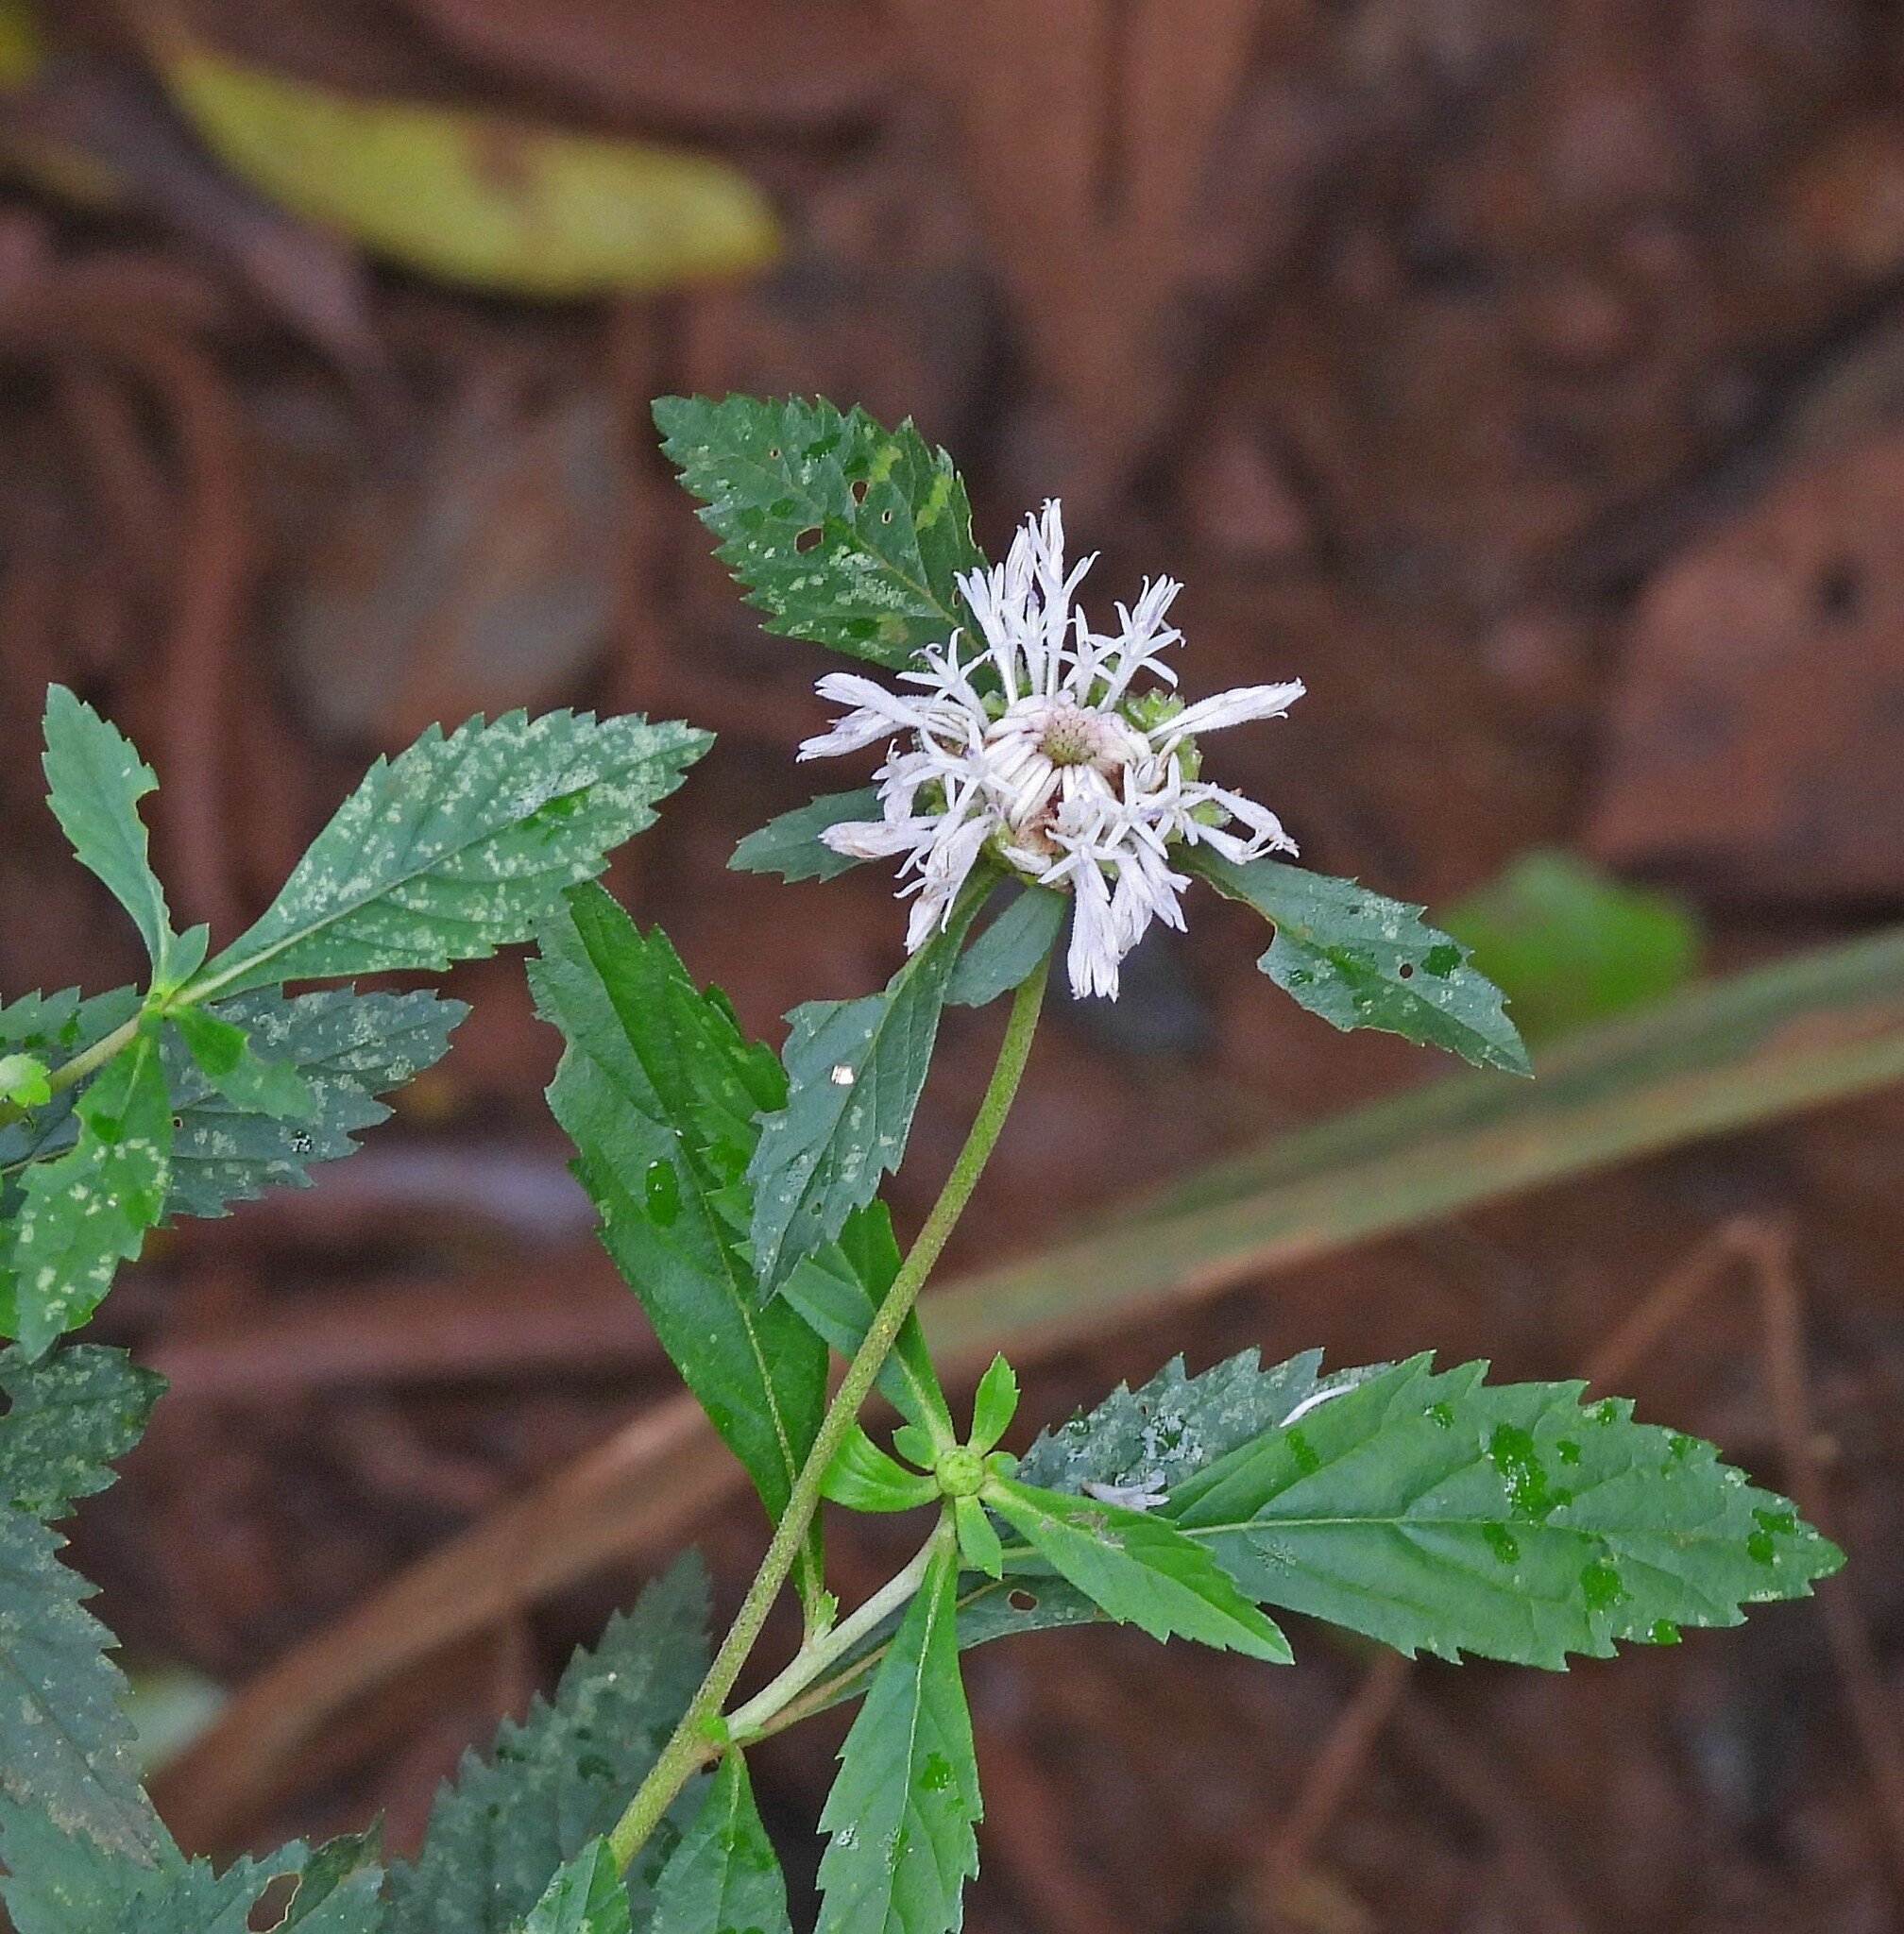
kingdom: Plantae
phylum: Tracheophyta
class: Magnoliopsida
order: Asterales
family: Asteraceae
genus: Centratherum
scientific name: Centratherum punctatum
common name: Larkdaisy
